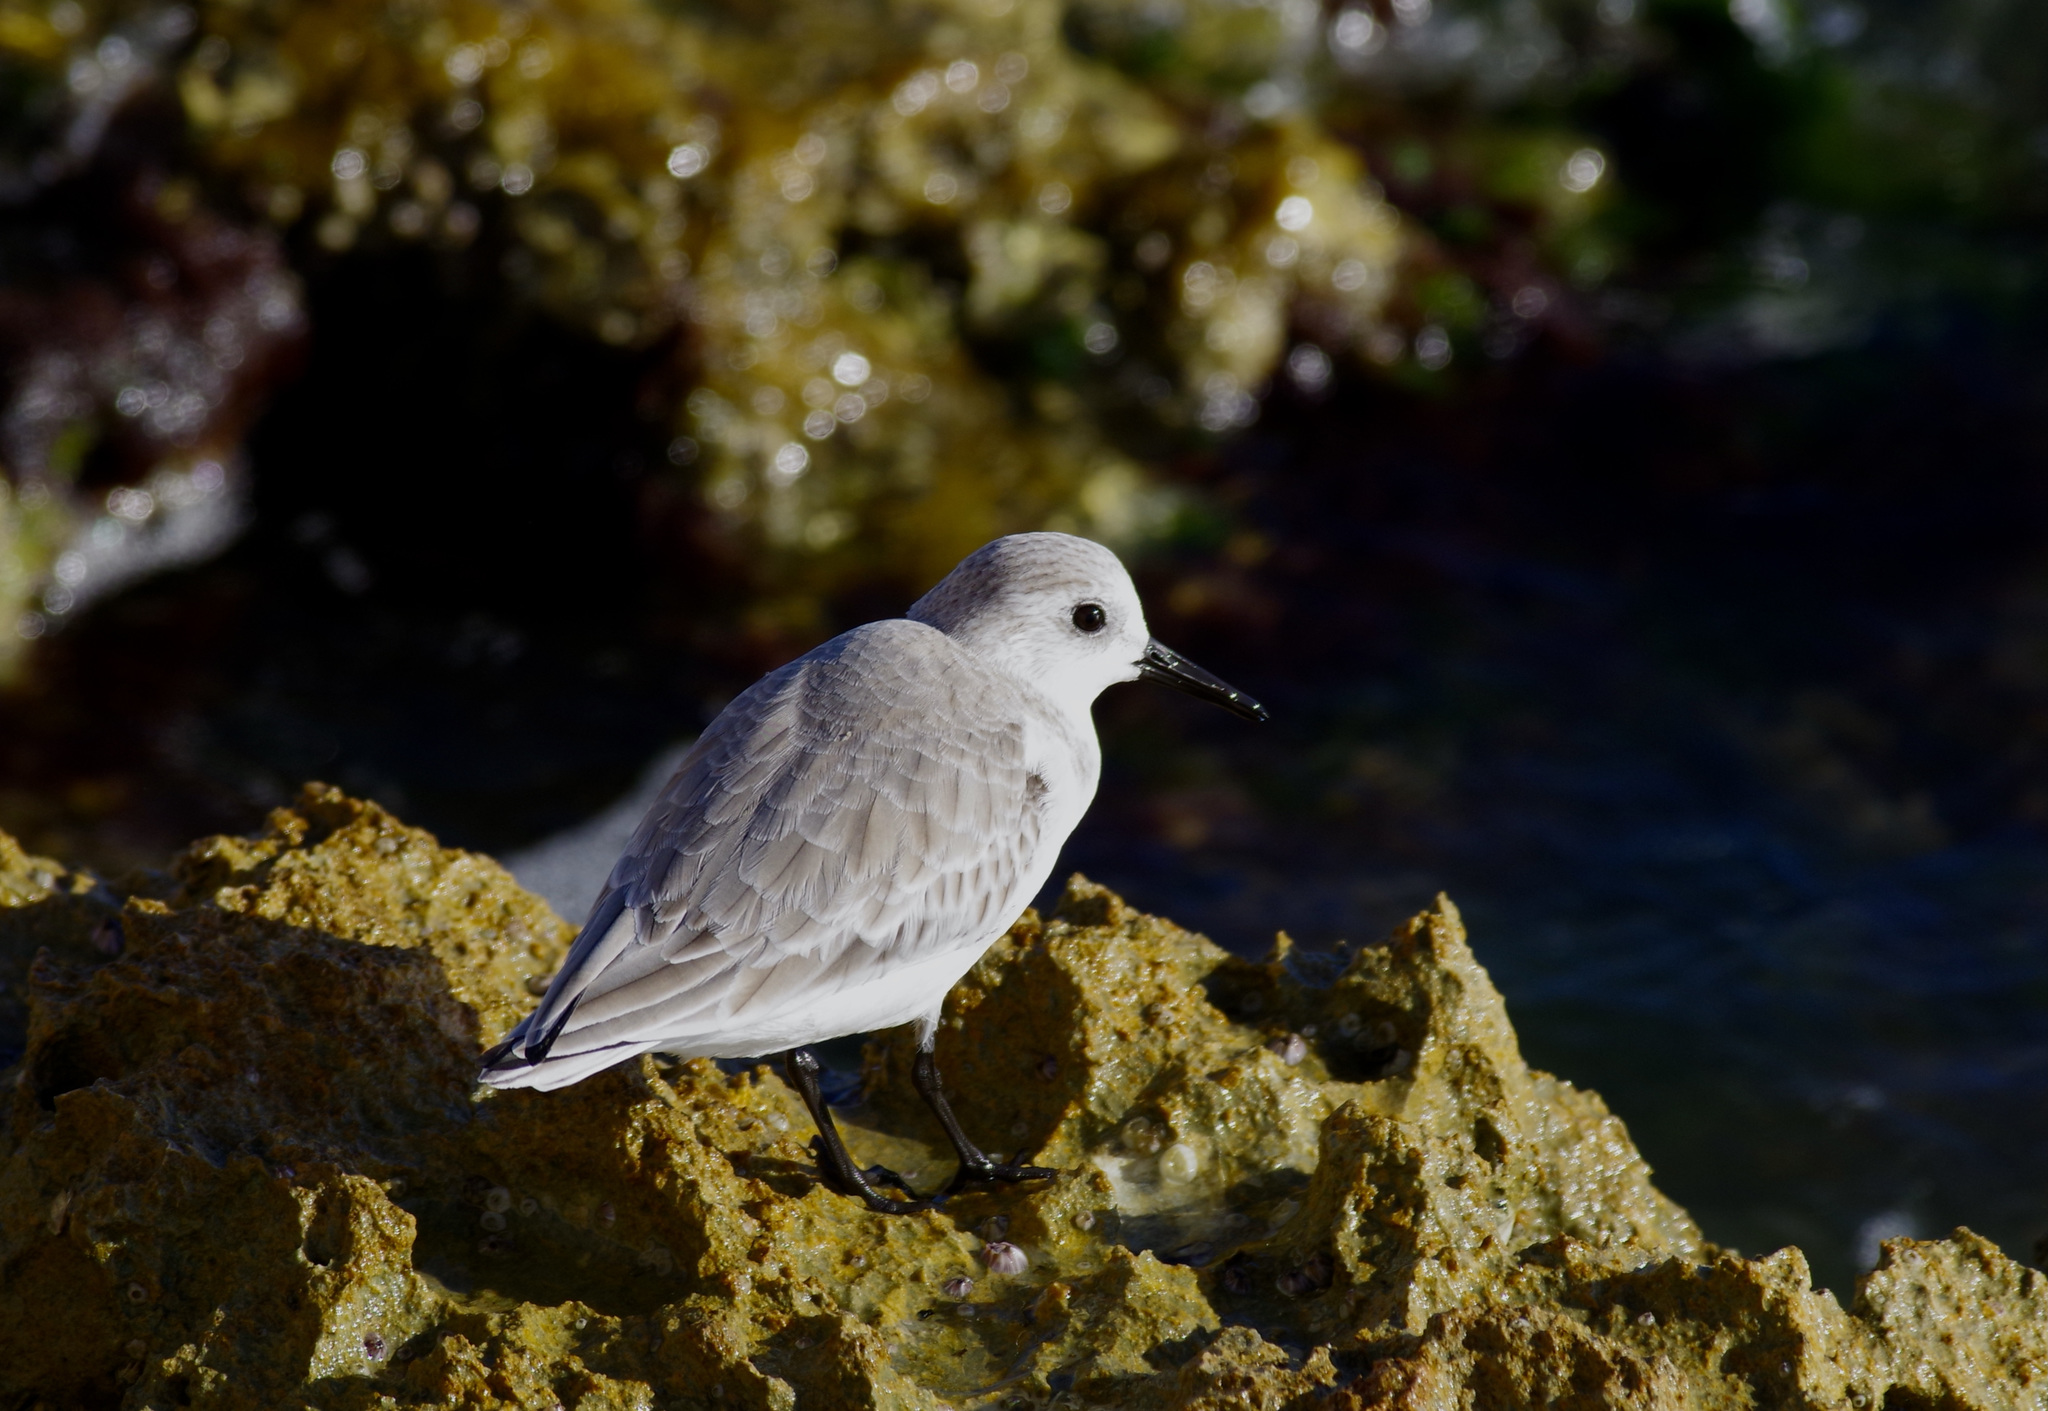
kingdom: Animalia
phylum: Chordata
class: Aves
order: Charadriiformes
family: Scolopacidae
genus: Calidris
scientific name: Calidris alba
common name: Sanderling
